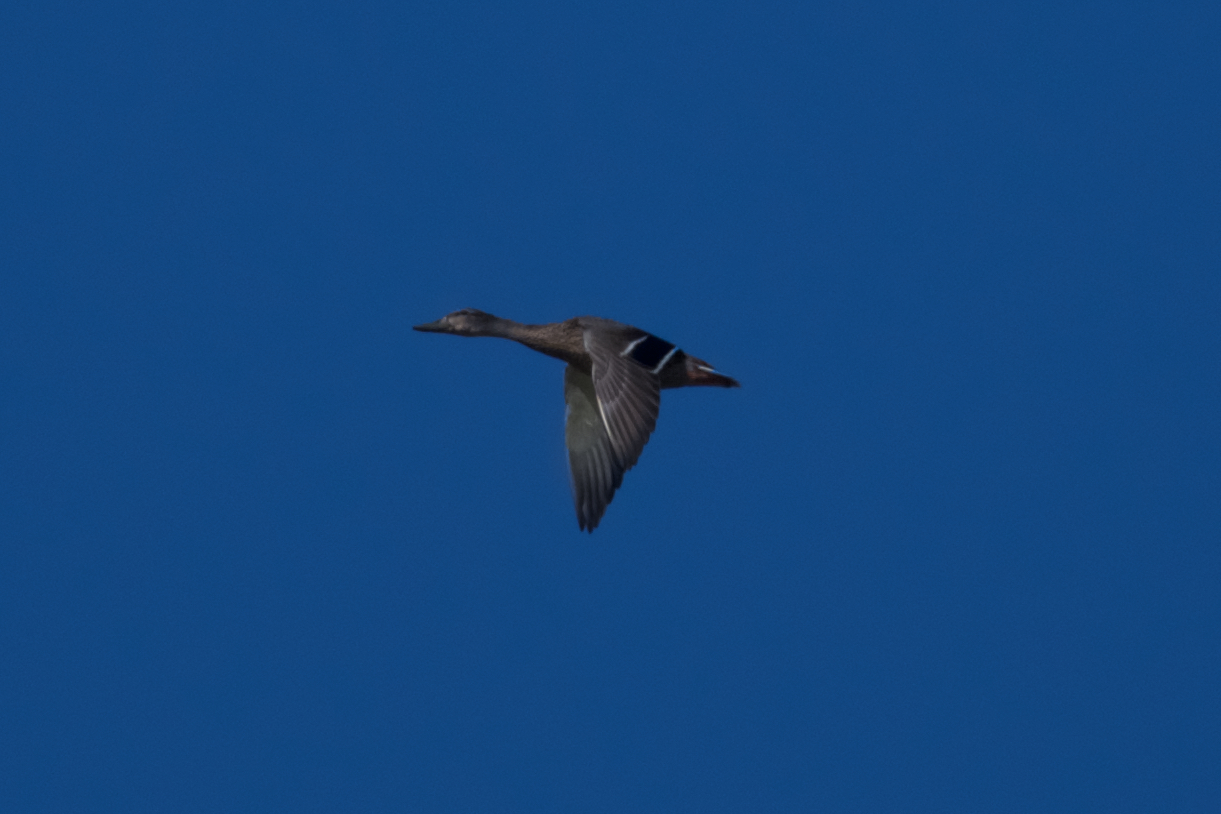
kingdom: Animalia
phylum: Chordata
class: Aves
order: Anseriformes
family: Anatidae
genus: Anas
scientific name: Anas platyrhynchos
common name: Mallard
